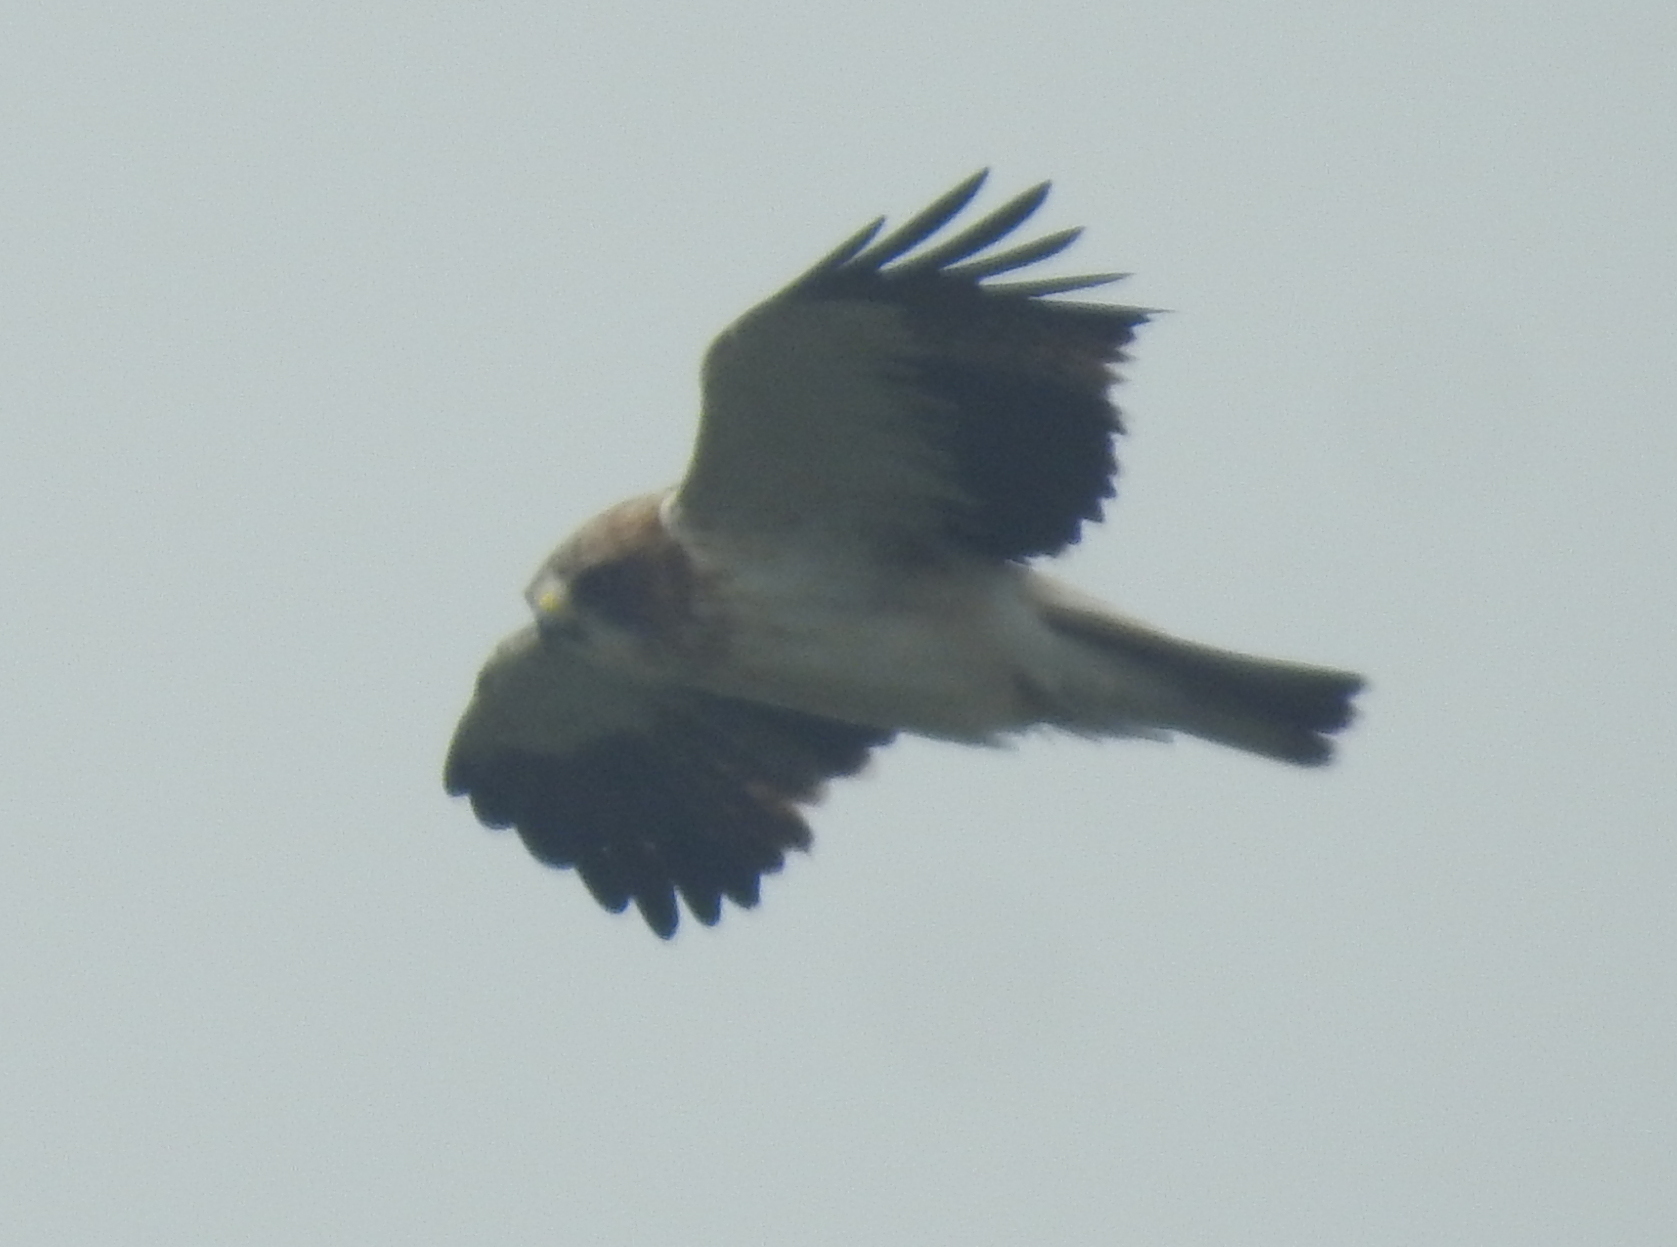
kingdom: Animalia
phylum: Chordata
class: Aves
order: Accipitriformes
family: Accipitridae
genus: Hieraaetus
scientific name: Hieraaetus pennatus
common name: Booted eagle
